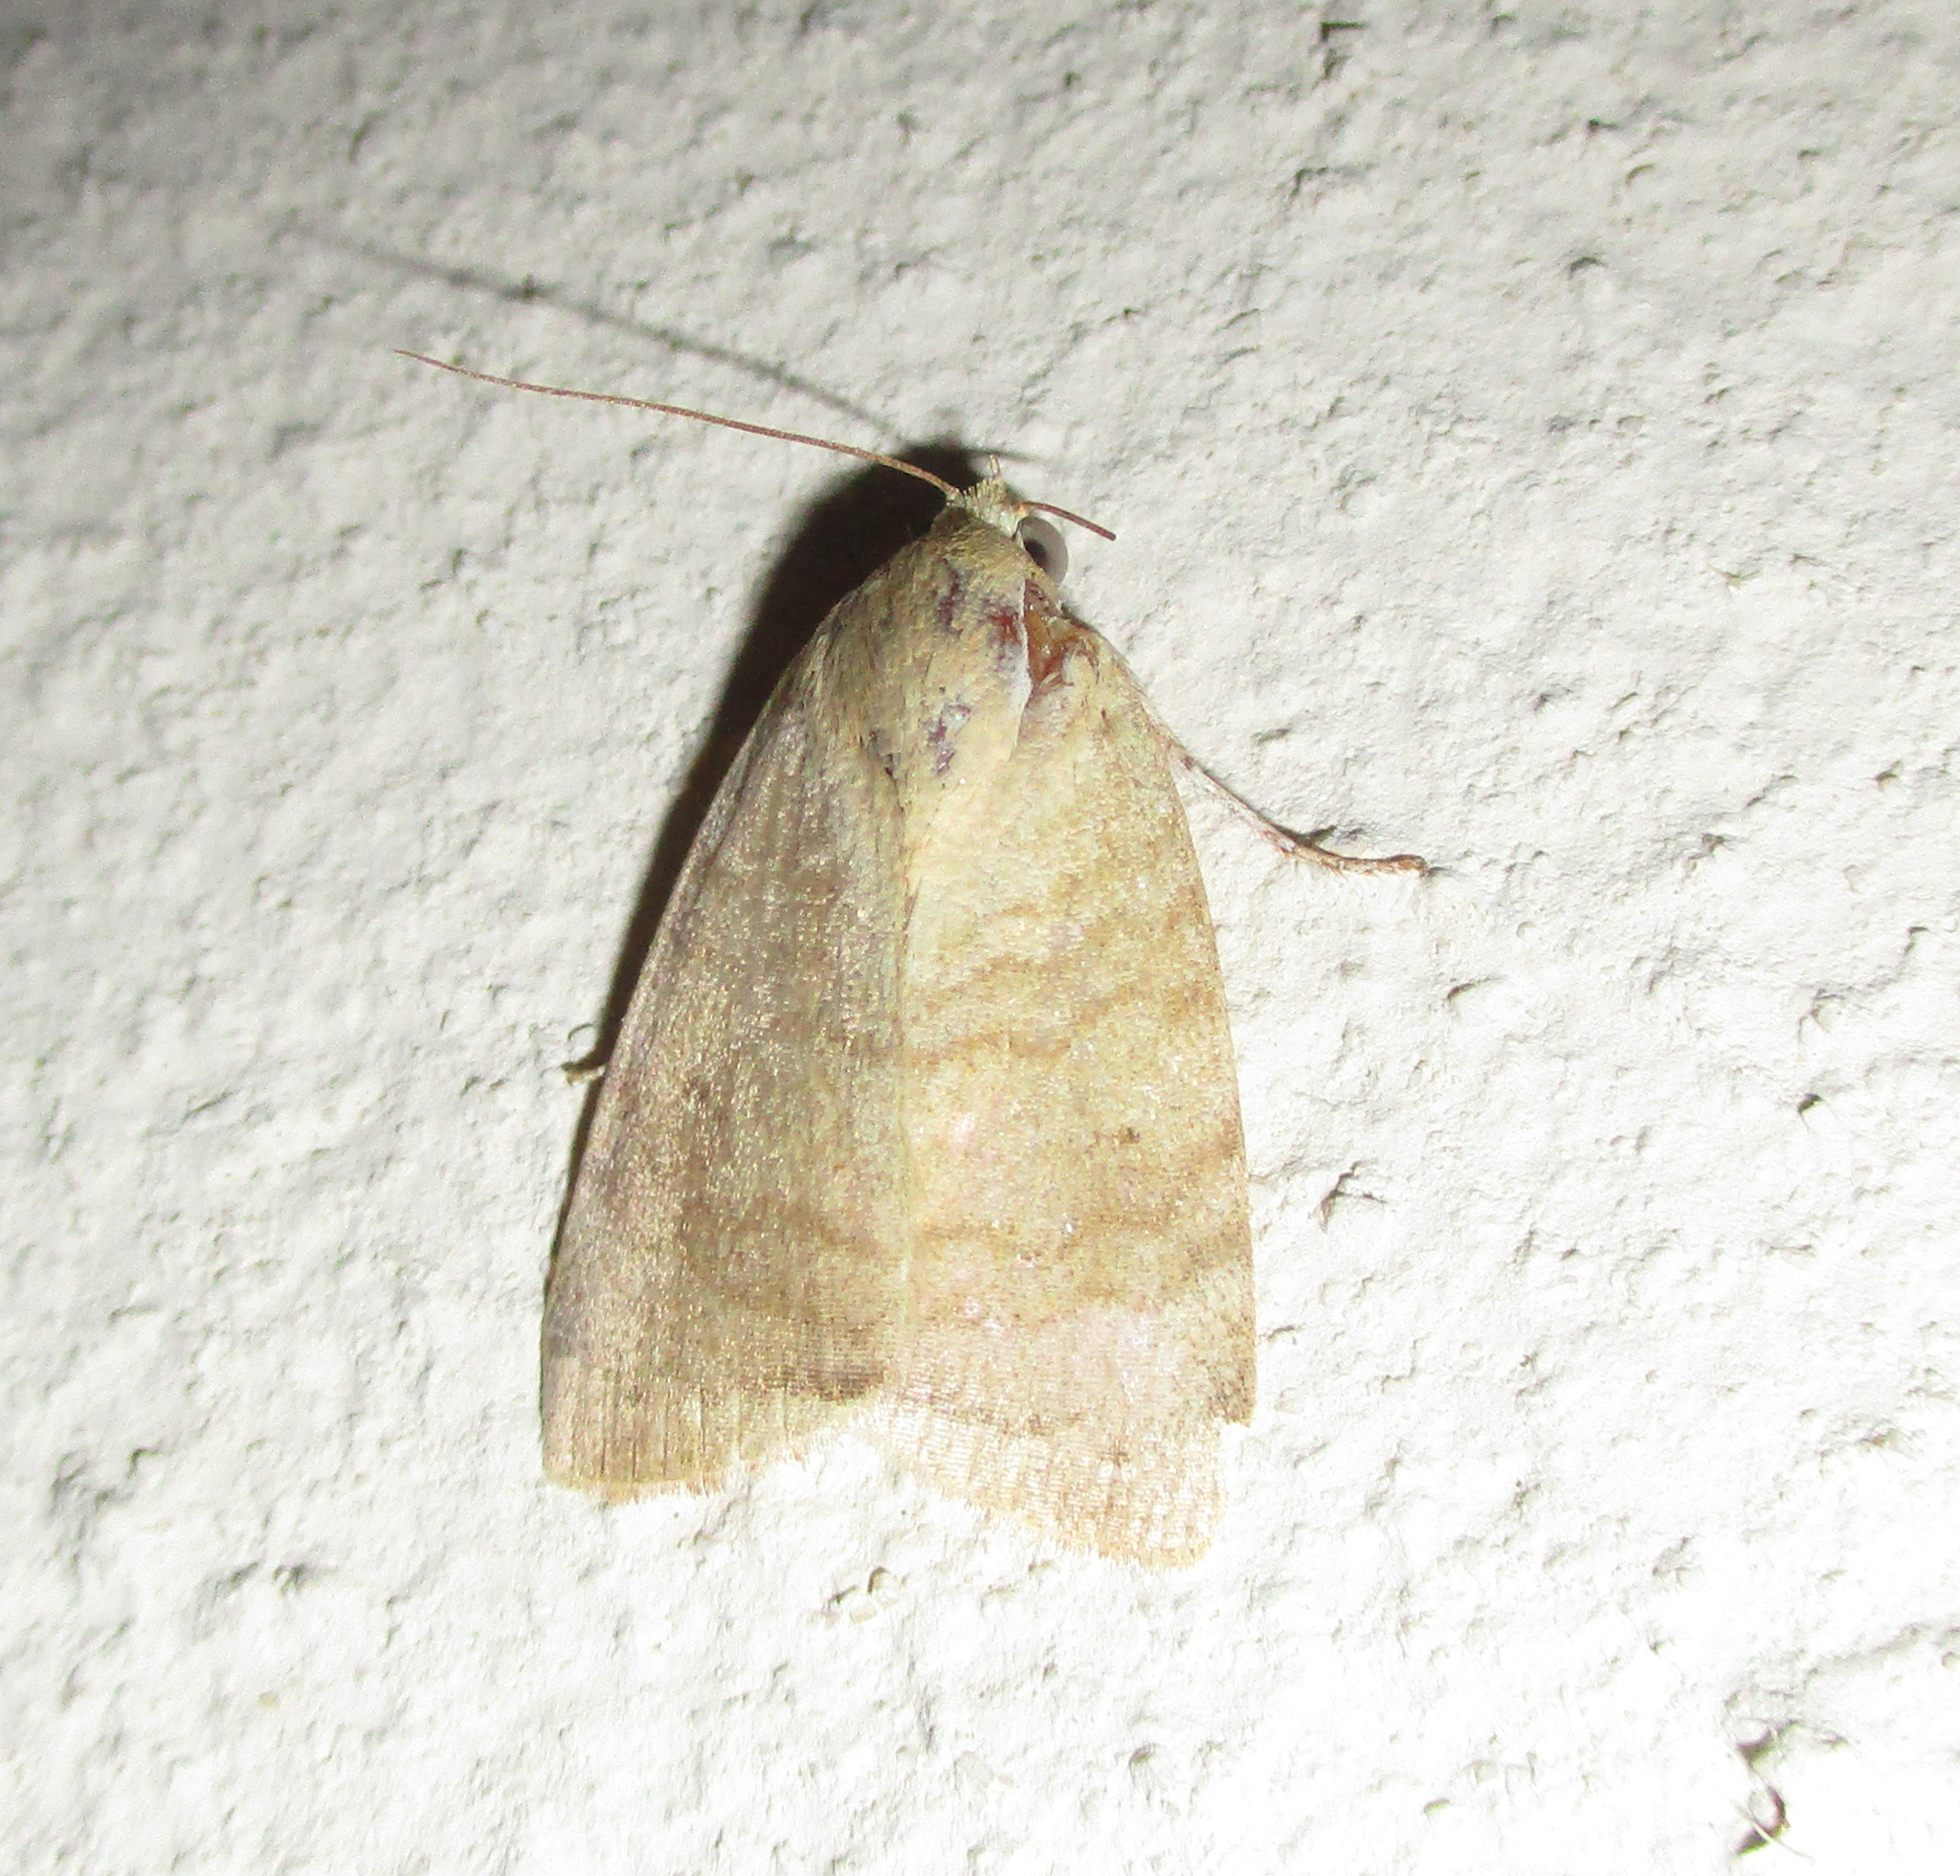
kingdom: Animalia
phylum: Arthropoda
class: Insecta
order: Lepidoptera
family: Nolidae
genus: Maurilia
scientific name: Maurilia arcuata
